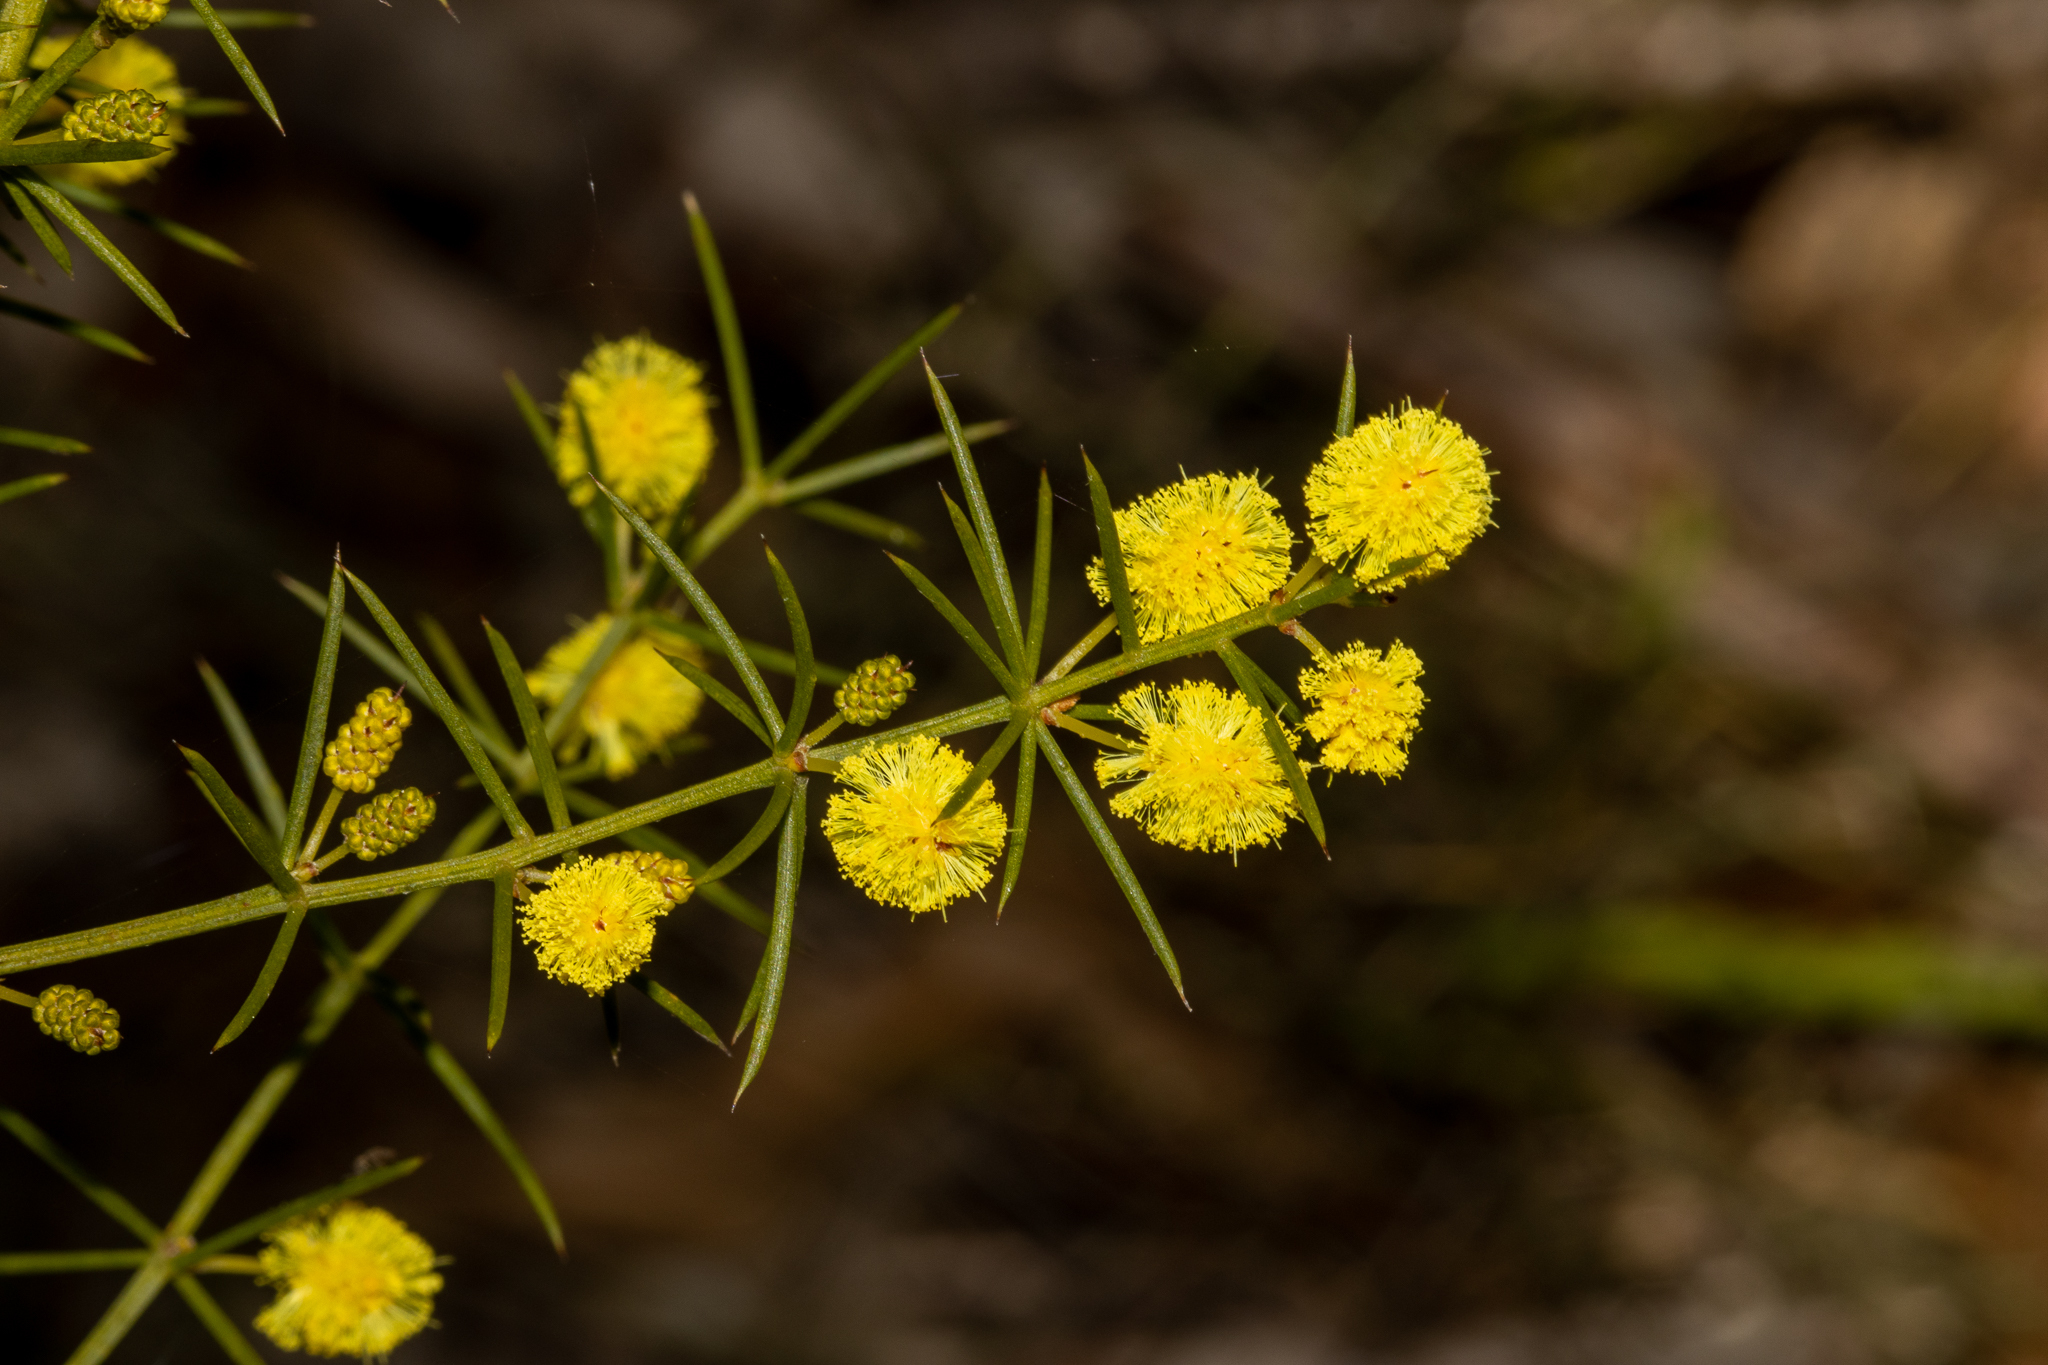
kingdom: Plantae
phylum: Tracheophyta
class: Magnoliopsida
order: Fabales
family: Fabaceae
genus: Acacia
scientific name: Acacia verticillata
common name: Prickly moses
